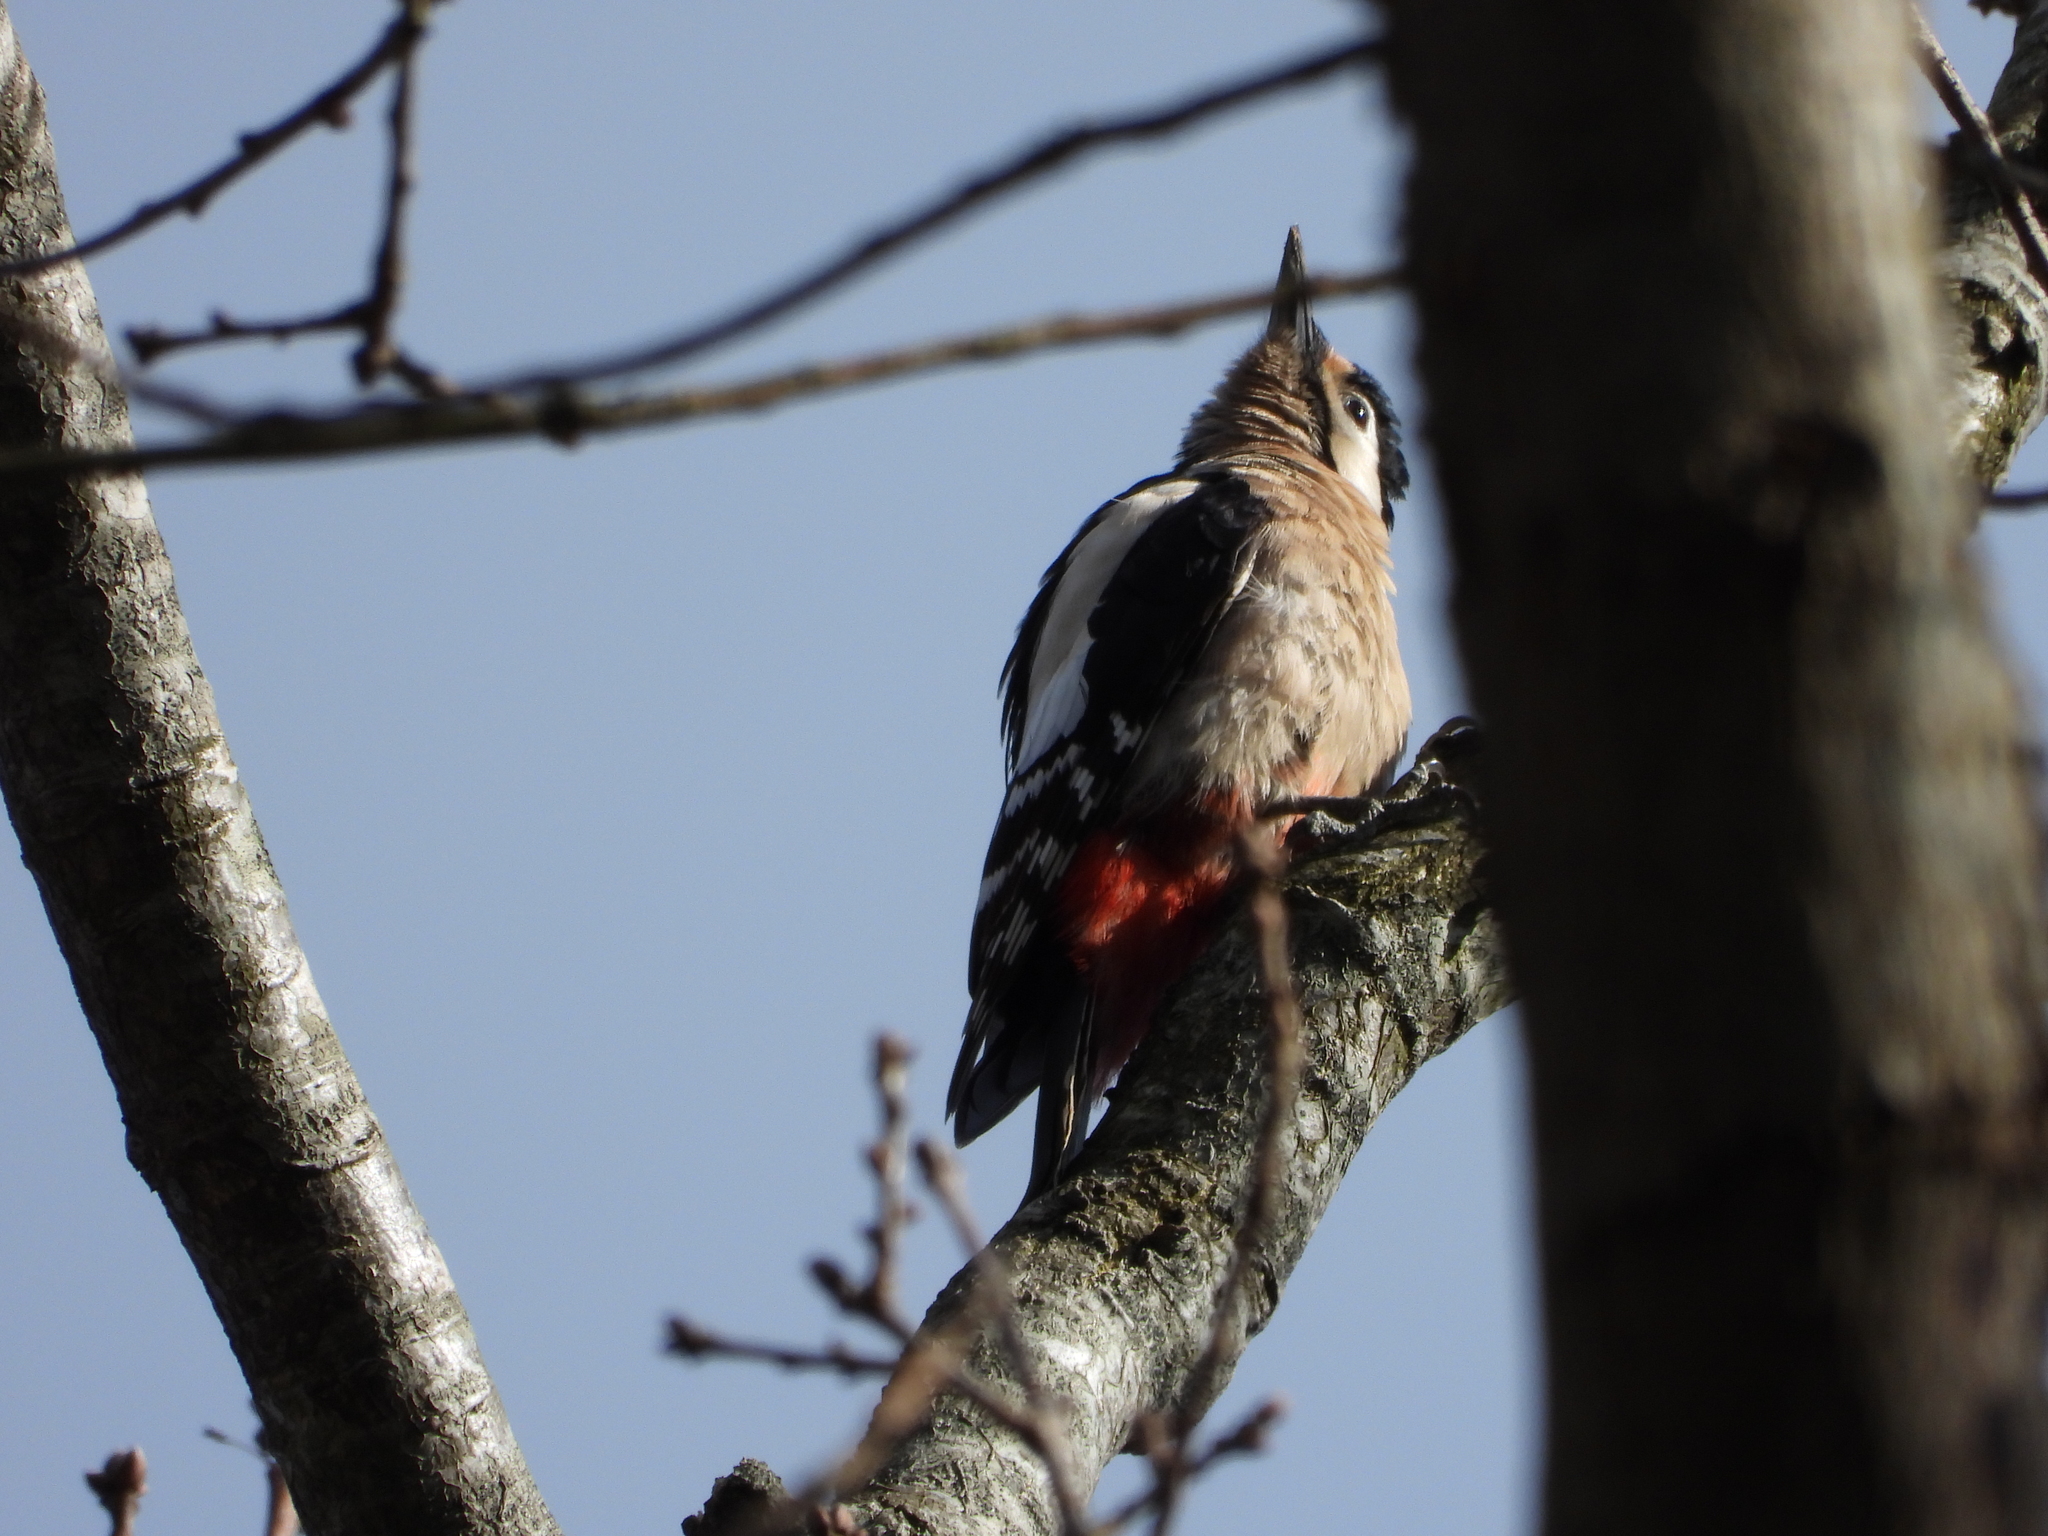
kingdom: Animalia
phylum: Chordata
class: Aves
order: Piciformes
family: Picidae
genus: Dendrocopos
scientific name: Dendrocopos major
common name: Great spotted woodpecker
